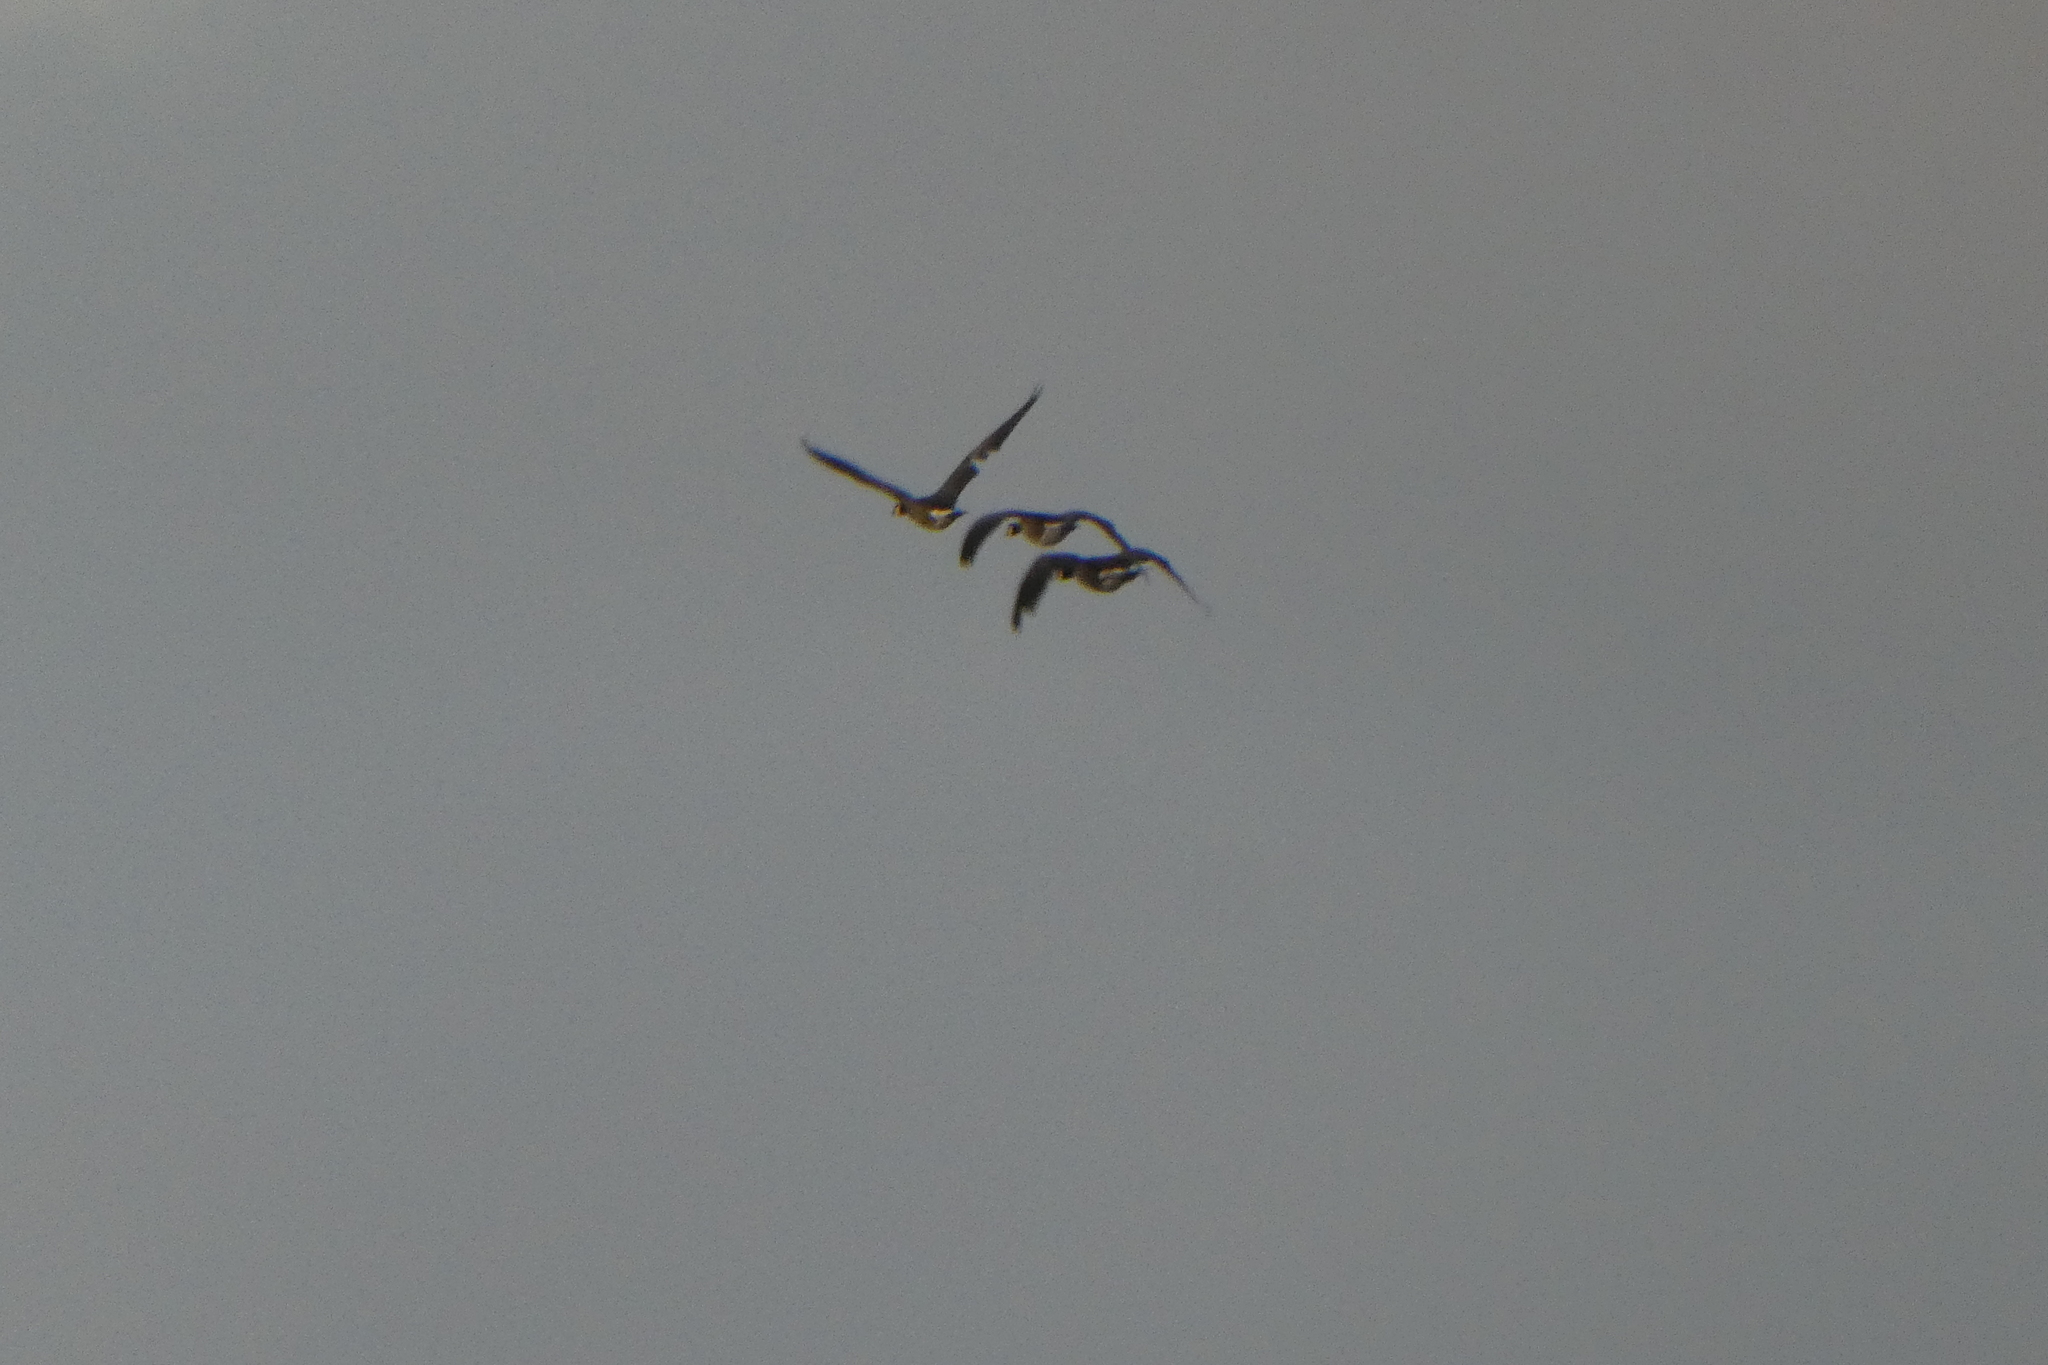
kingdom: Animalia
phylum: Chordata
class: Aves
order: Anseriformes
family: Anatidae
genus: Branta
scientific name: Branta canadensis
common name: Canada goose
